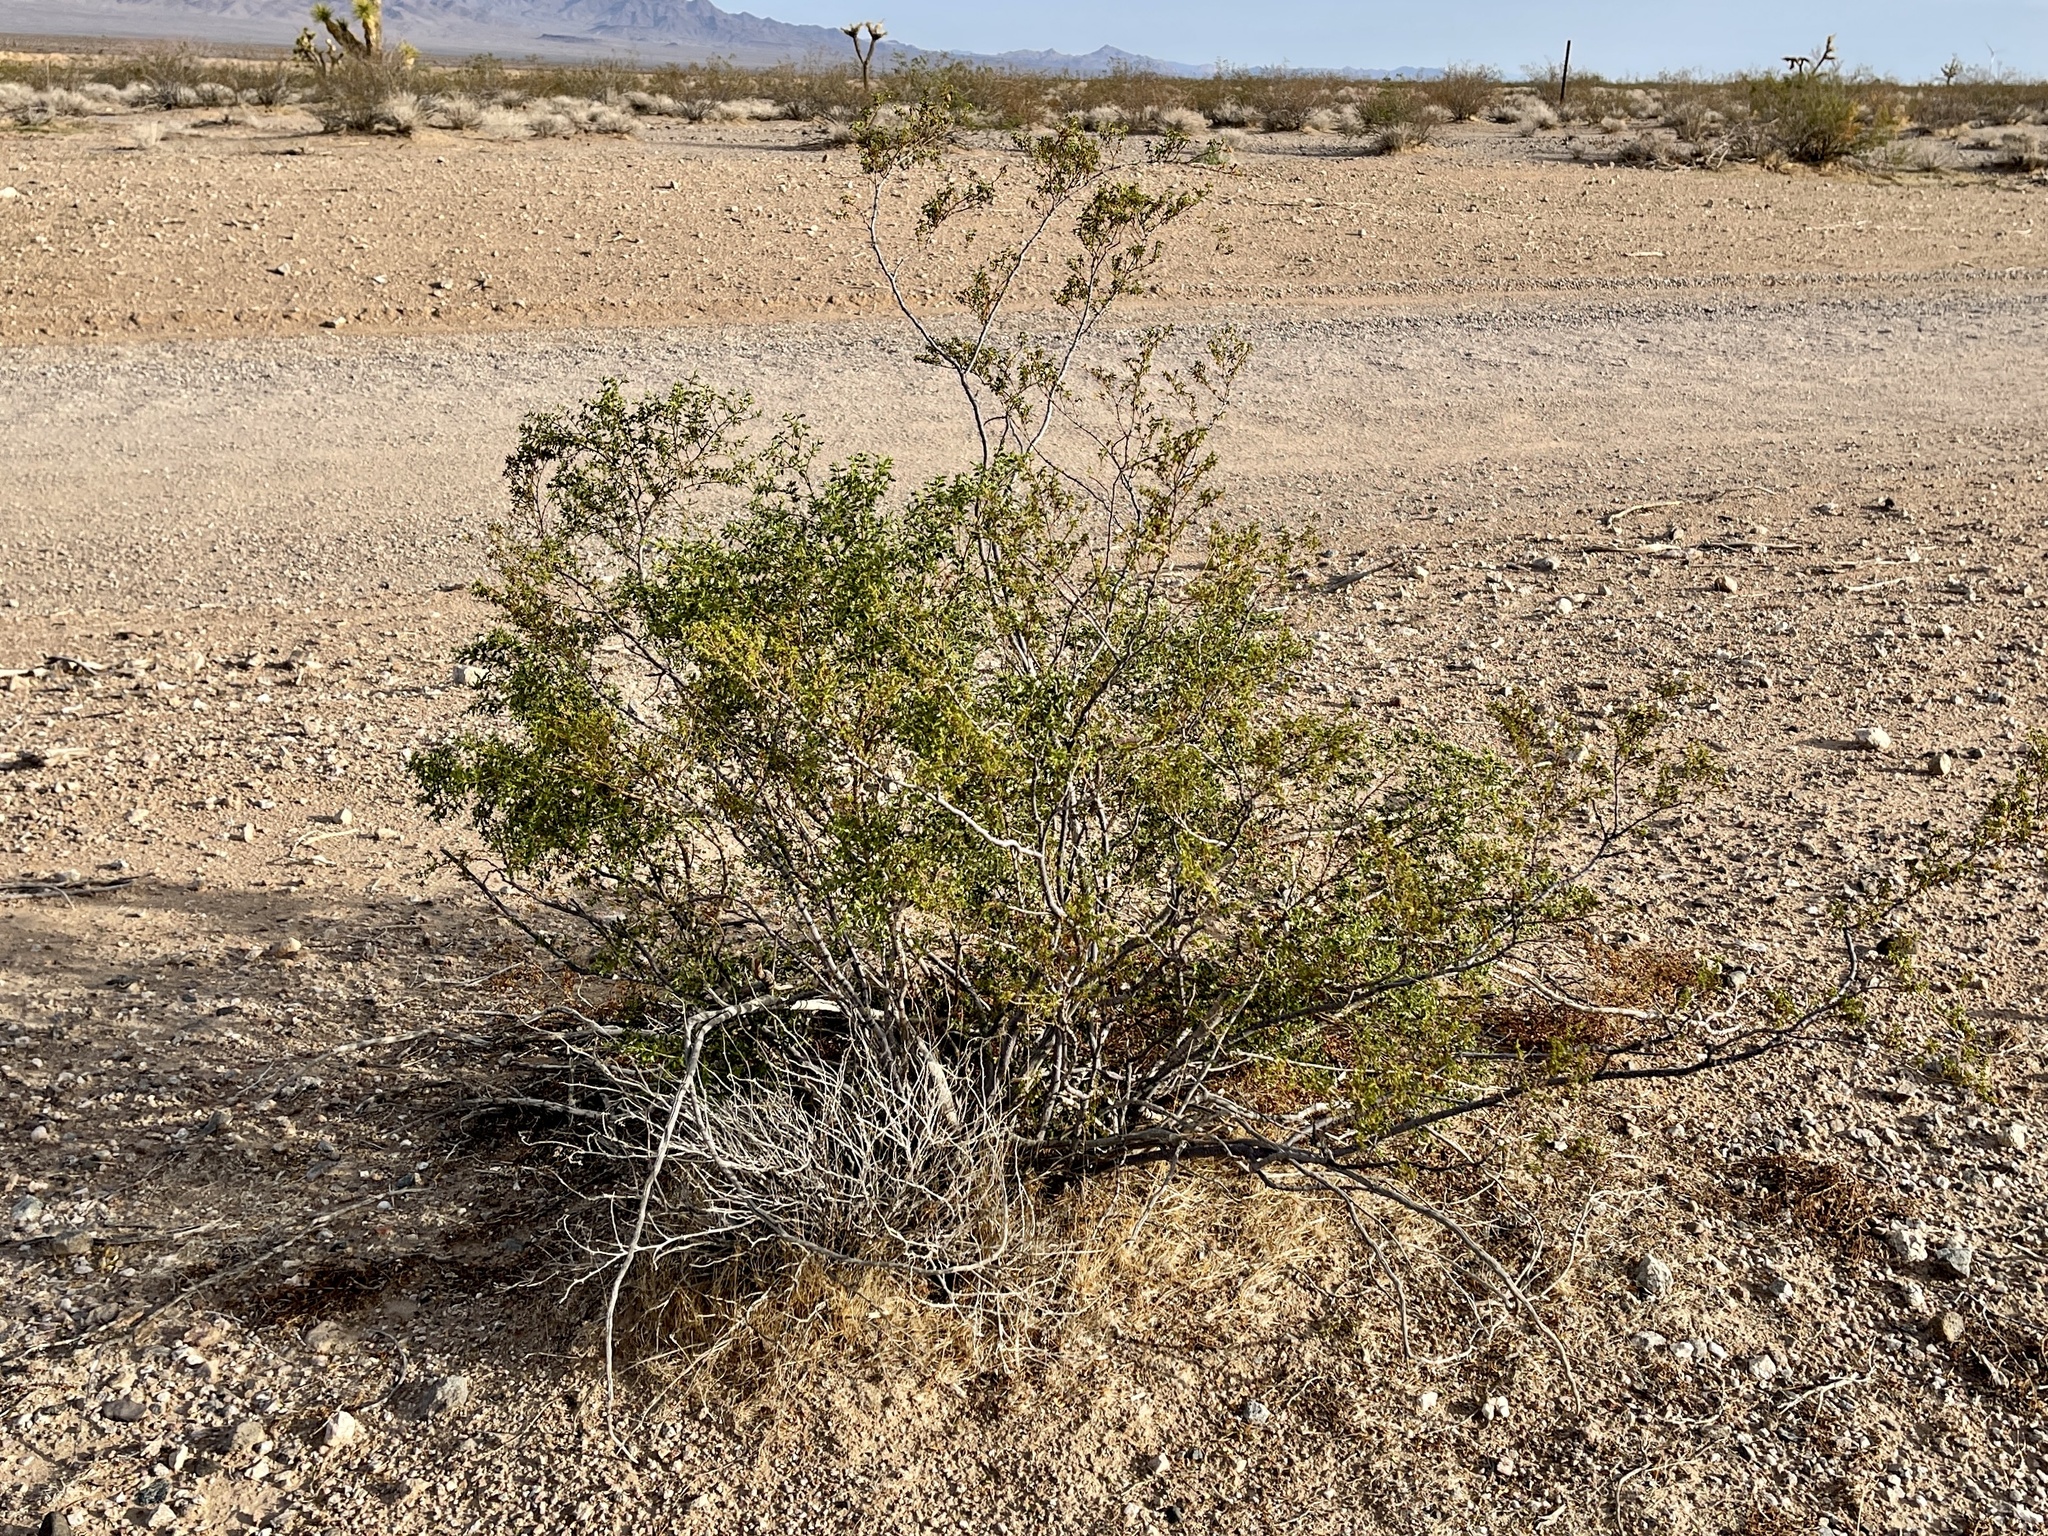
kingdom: Plantae
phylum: Tracheophyta
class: Magnoliopsida
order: Zygophyllales
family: Zygophyllaceae
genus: Larrea
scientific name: Larrea tridentata
